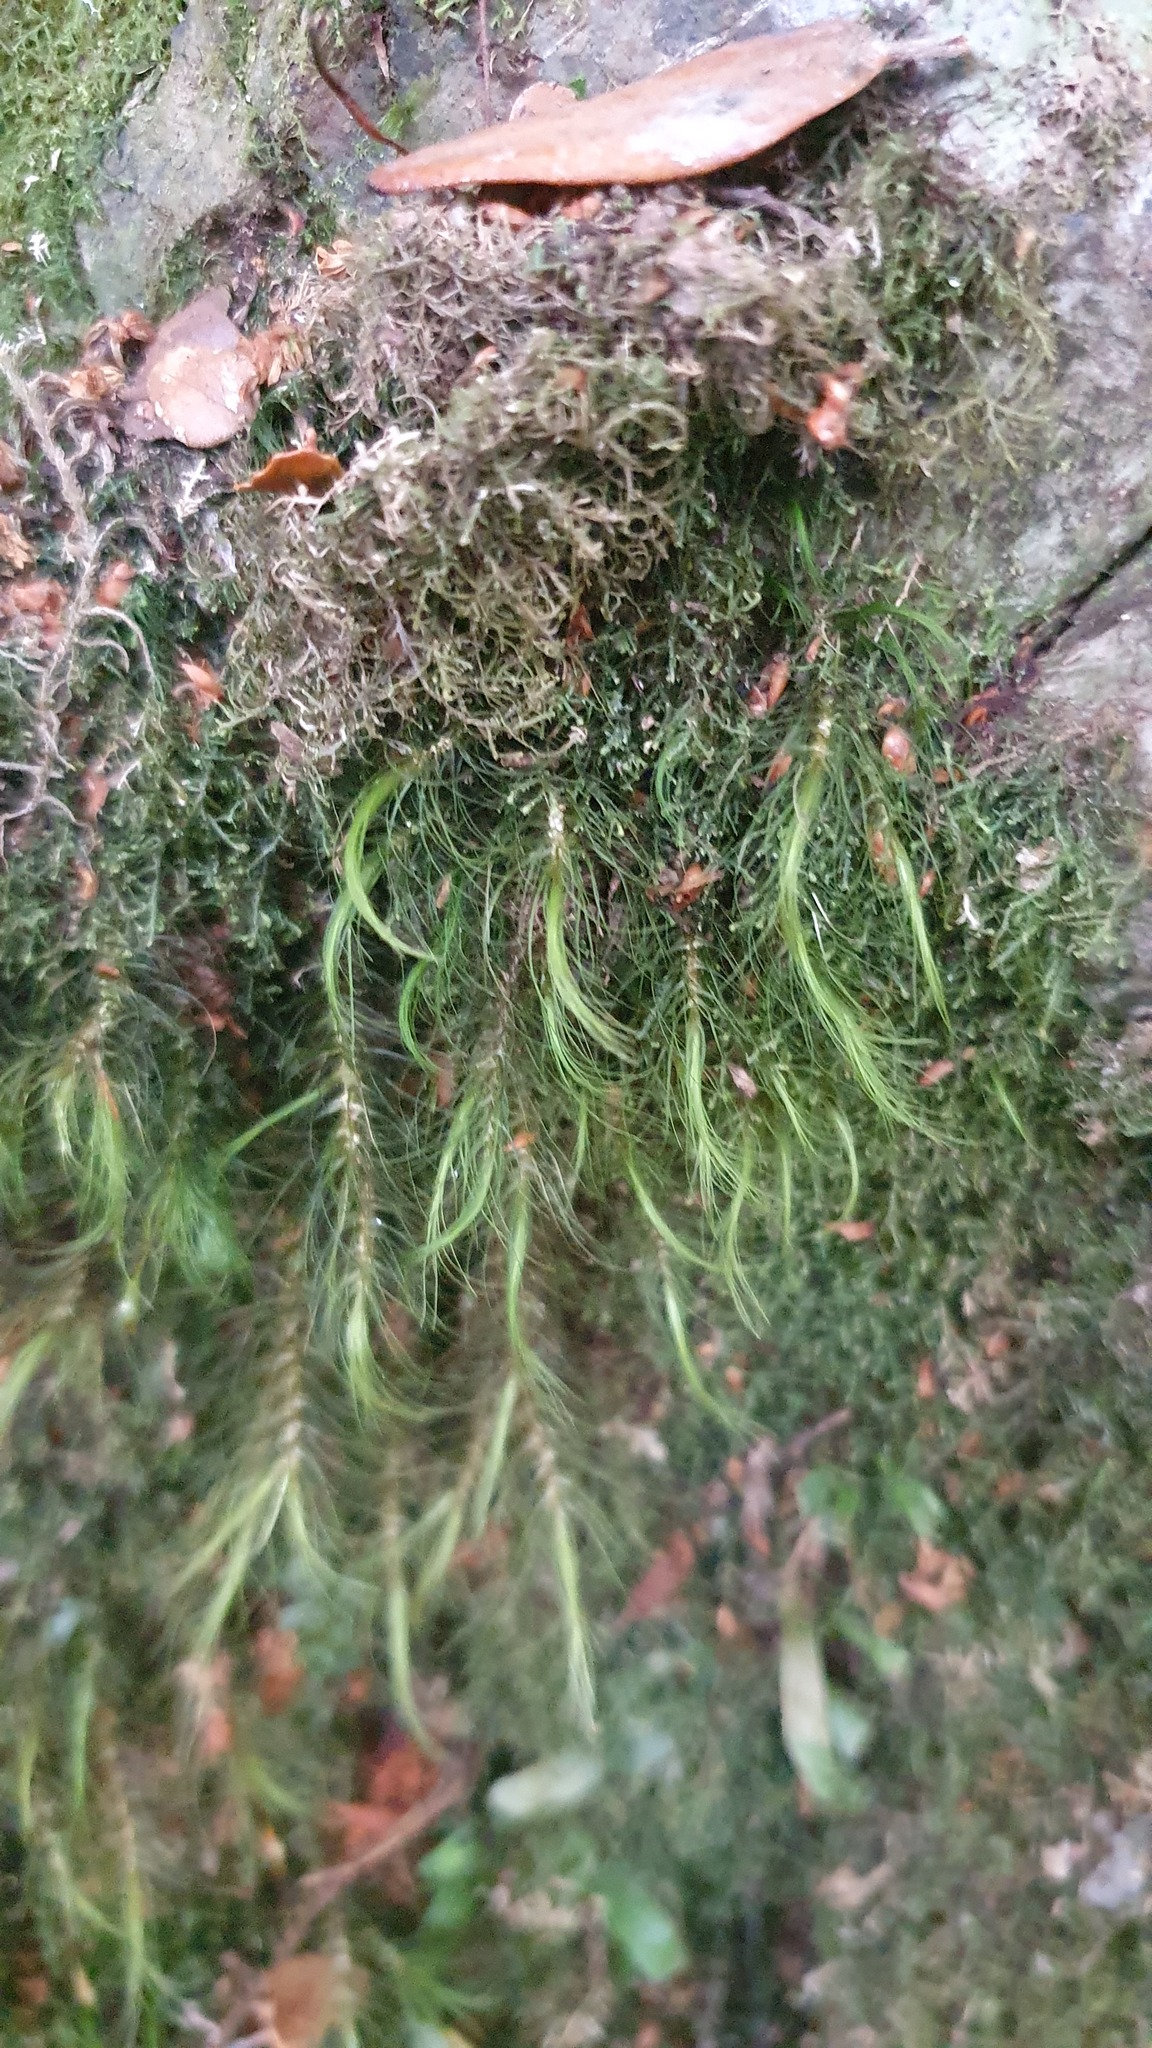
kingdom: Plantae
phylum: Bryophyta
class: Bryopsida
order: Dicranales
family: Dicranaceae
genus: Dicranoloma
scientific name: Dicranoloma menziesii
